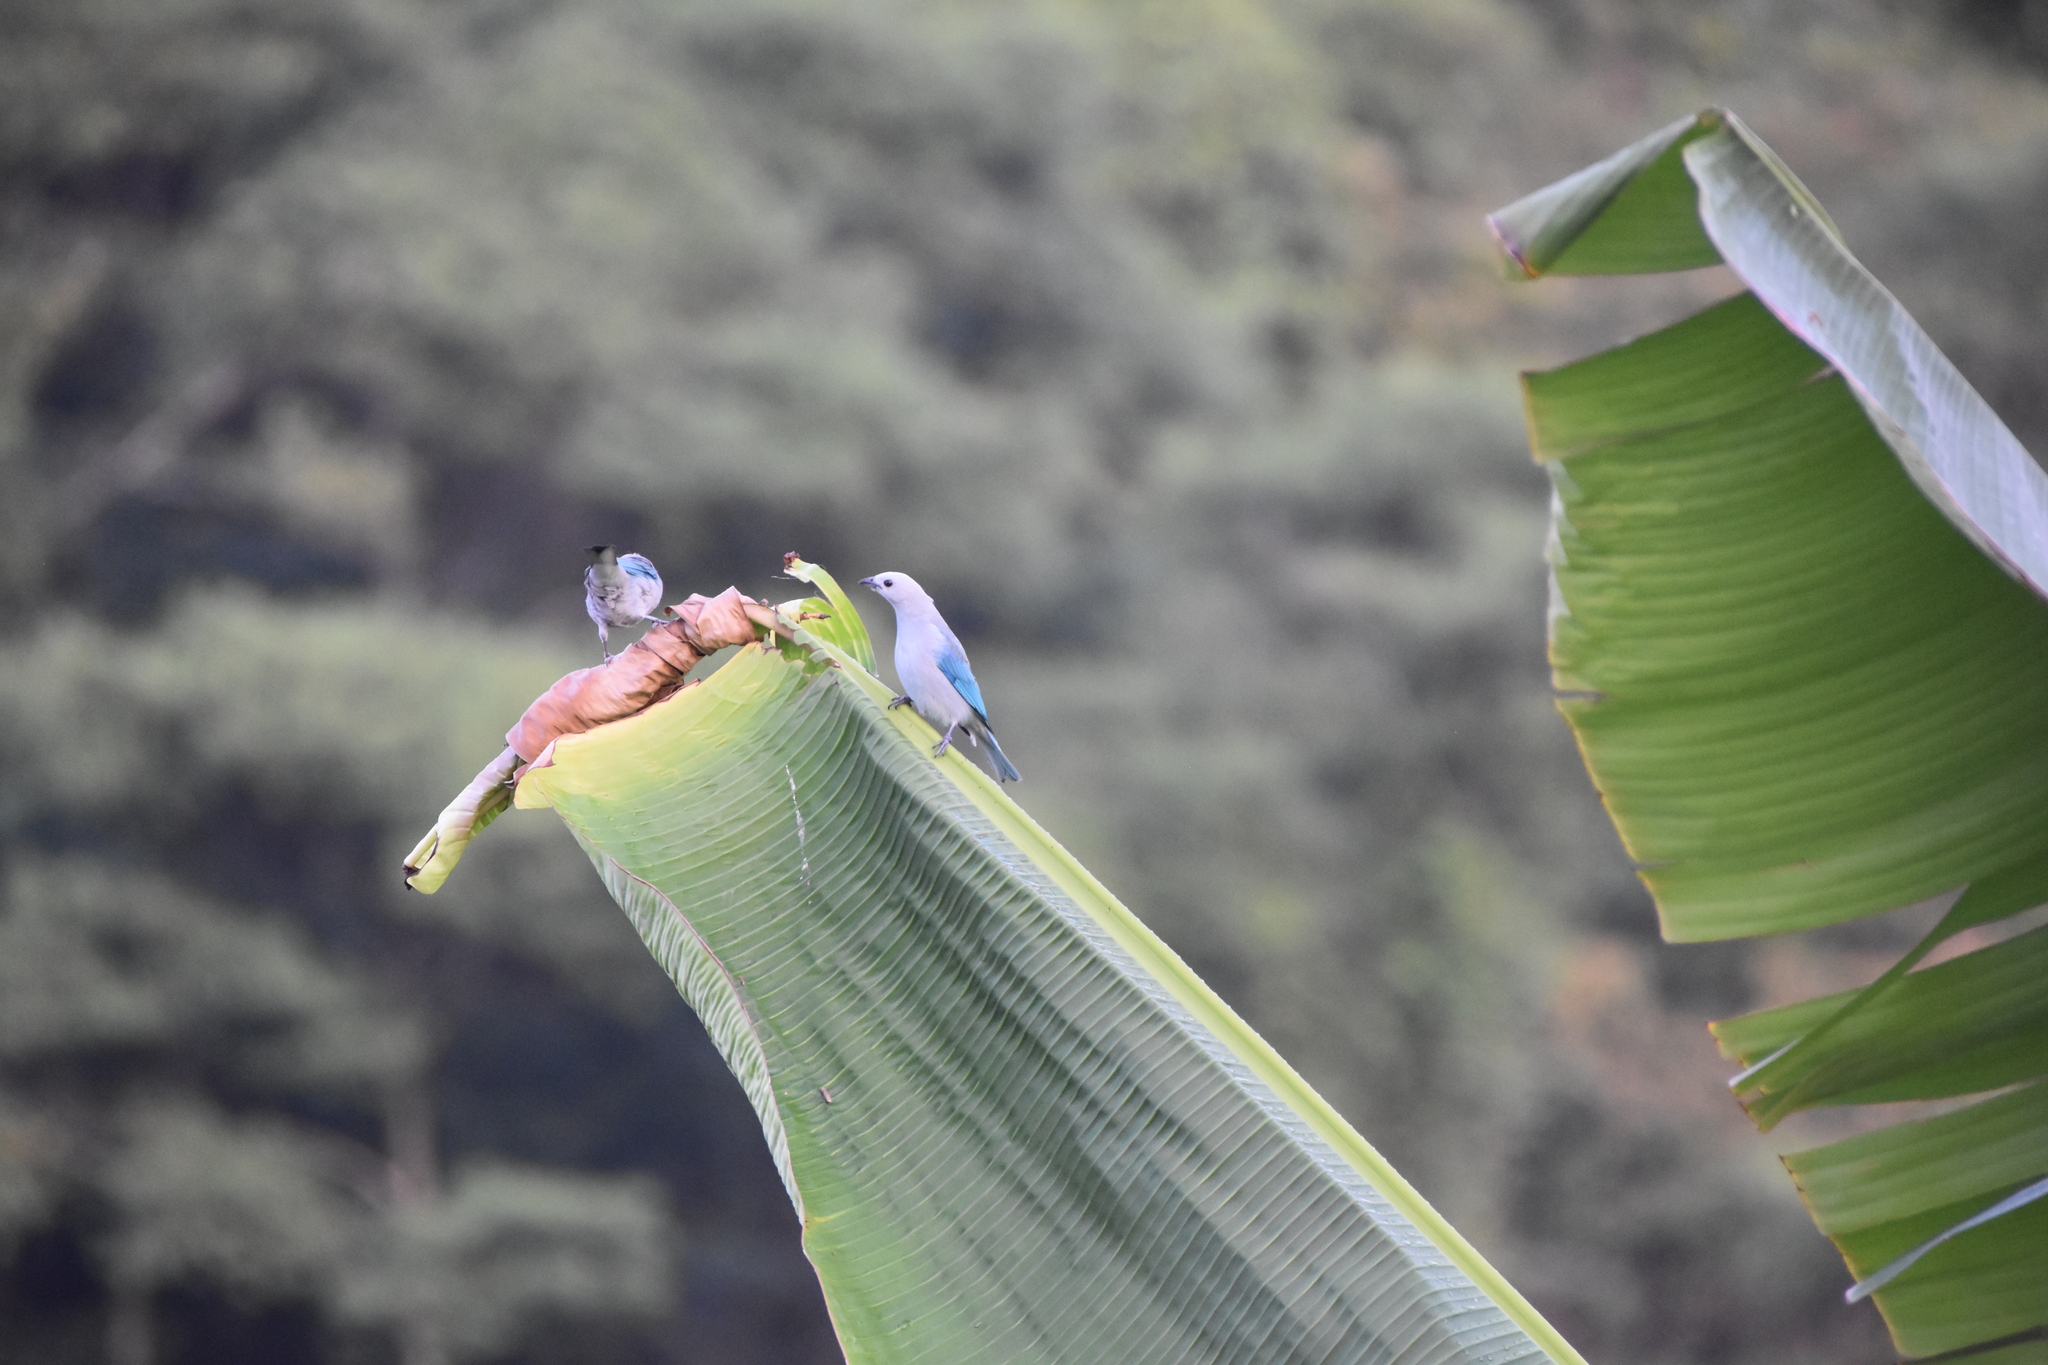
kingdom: Animalia
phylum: Chordata
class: Aves
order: Passeriformes
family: Thraupidae
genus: Thraupis
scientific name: Thraupis episcopus
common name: Blue-grey tanager
